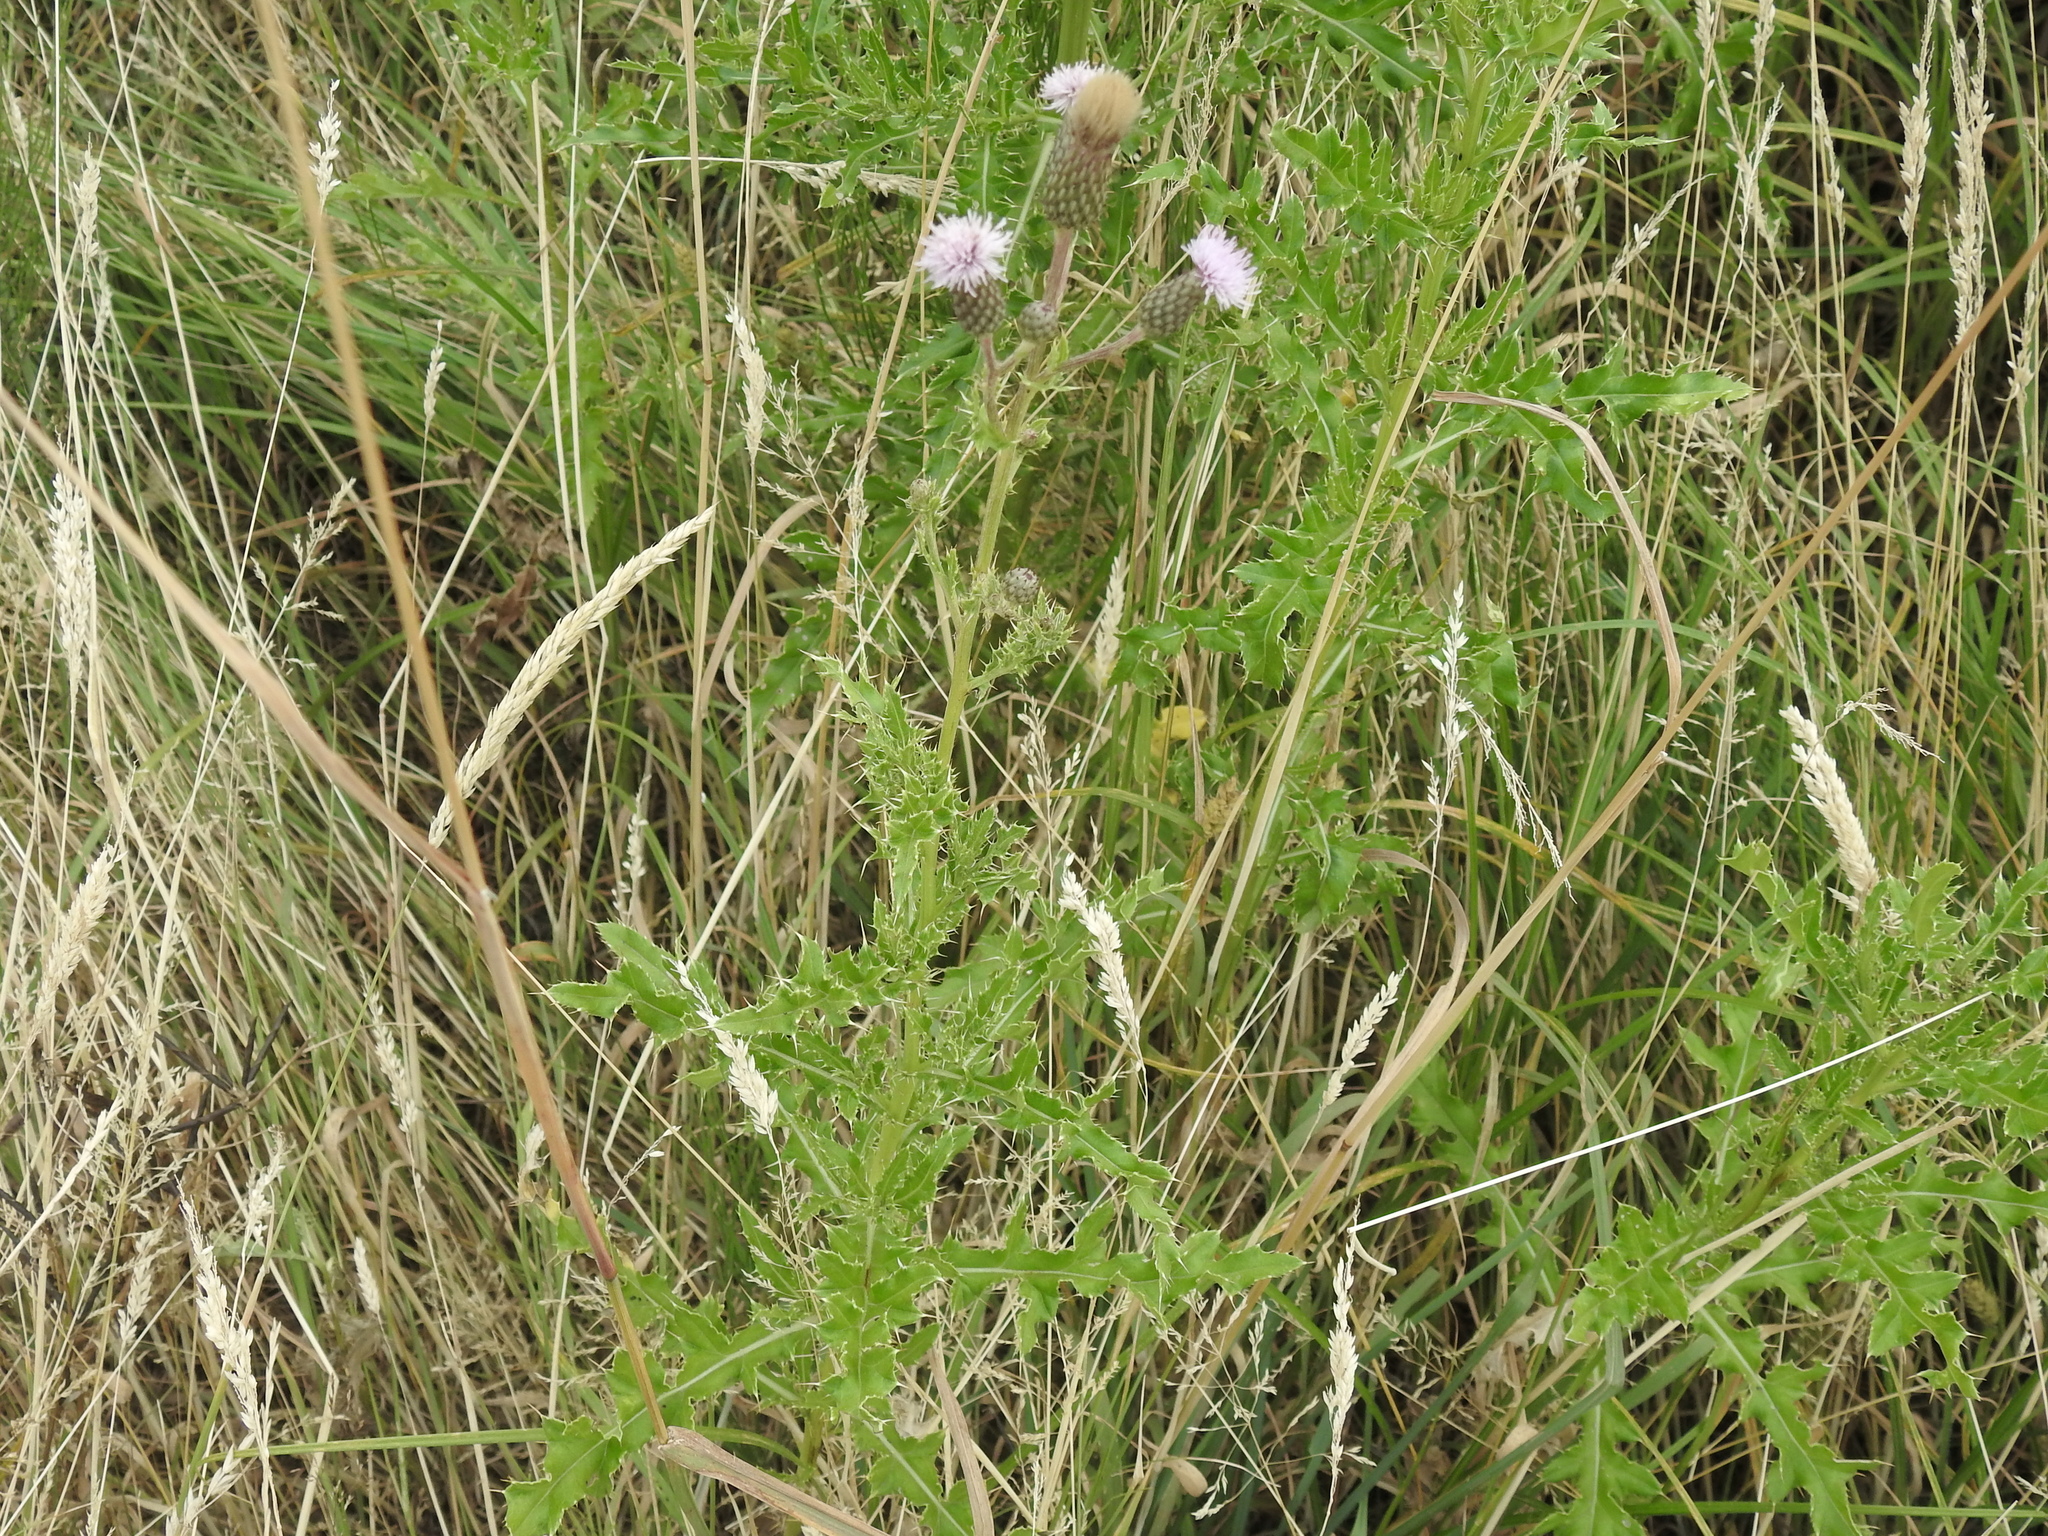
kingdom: Plantae
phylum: Tracheophyta
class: Magnoliopsida
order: Asterales
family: Asteraceae
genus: Cirsium
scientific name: Cirsium arvense
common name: Creeping thistle
